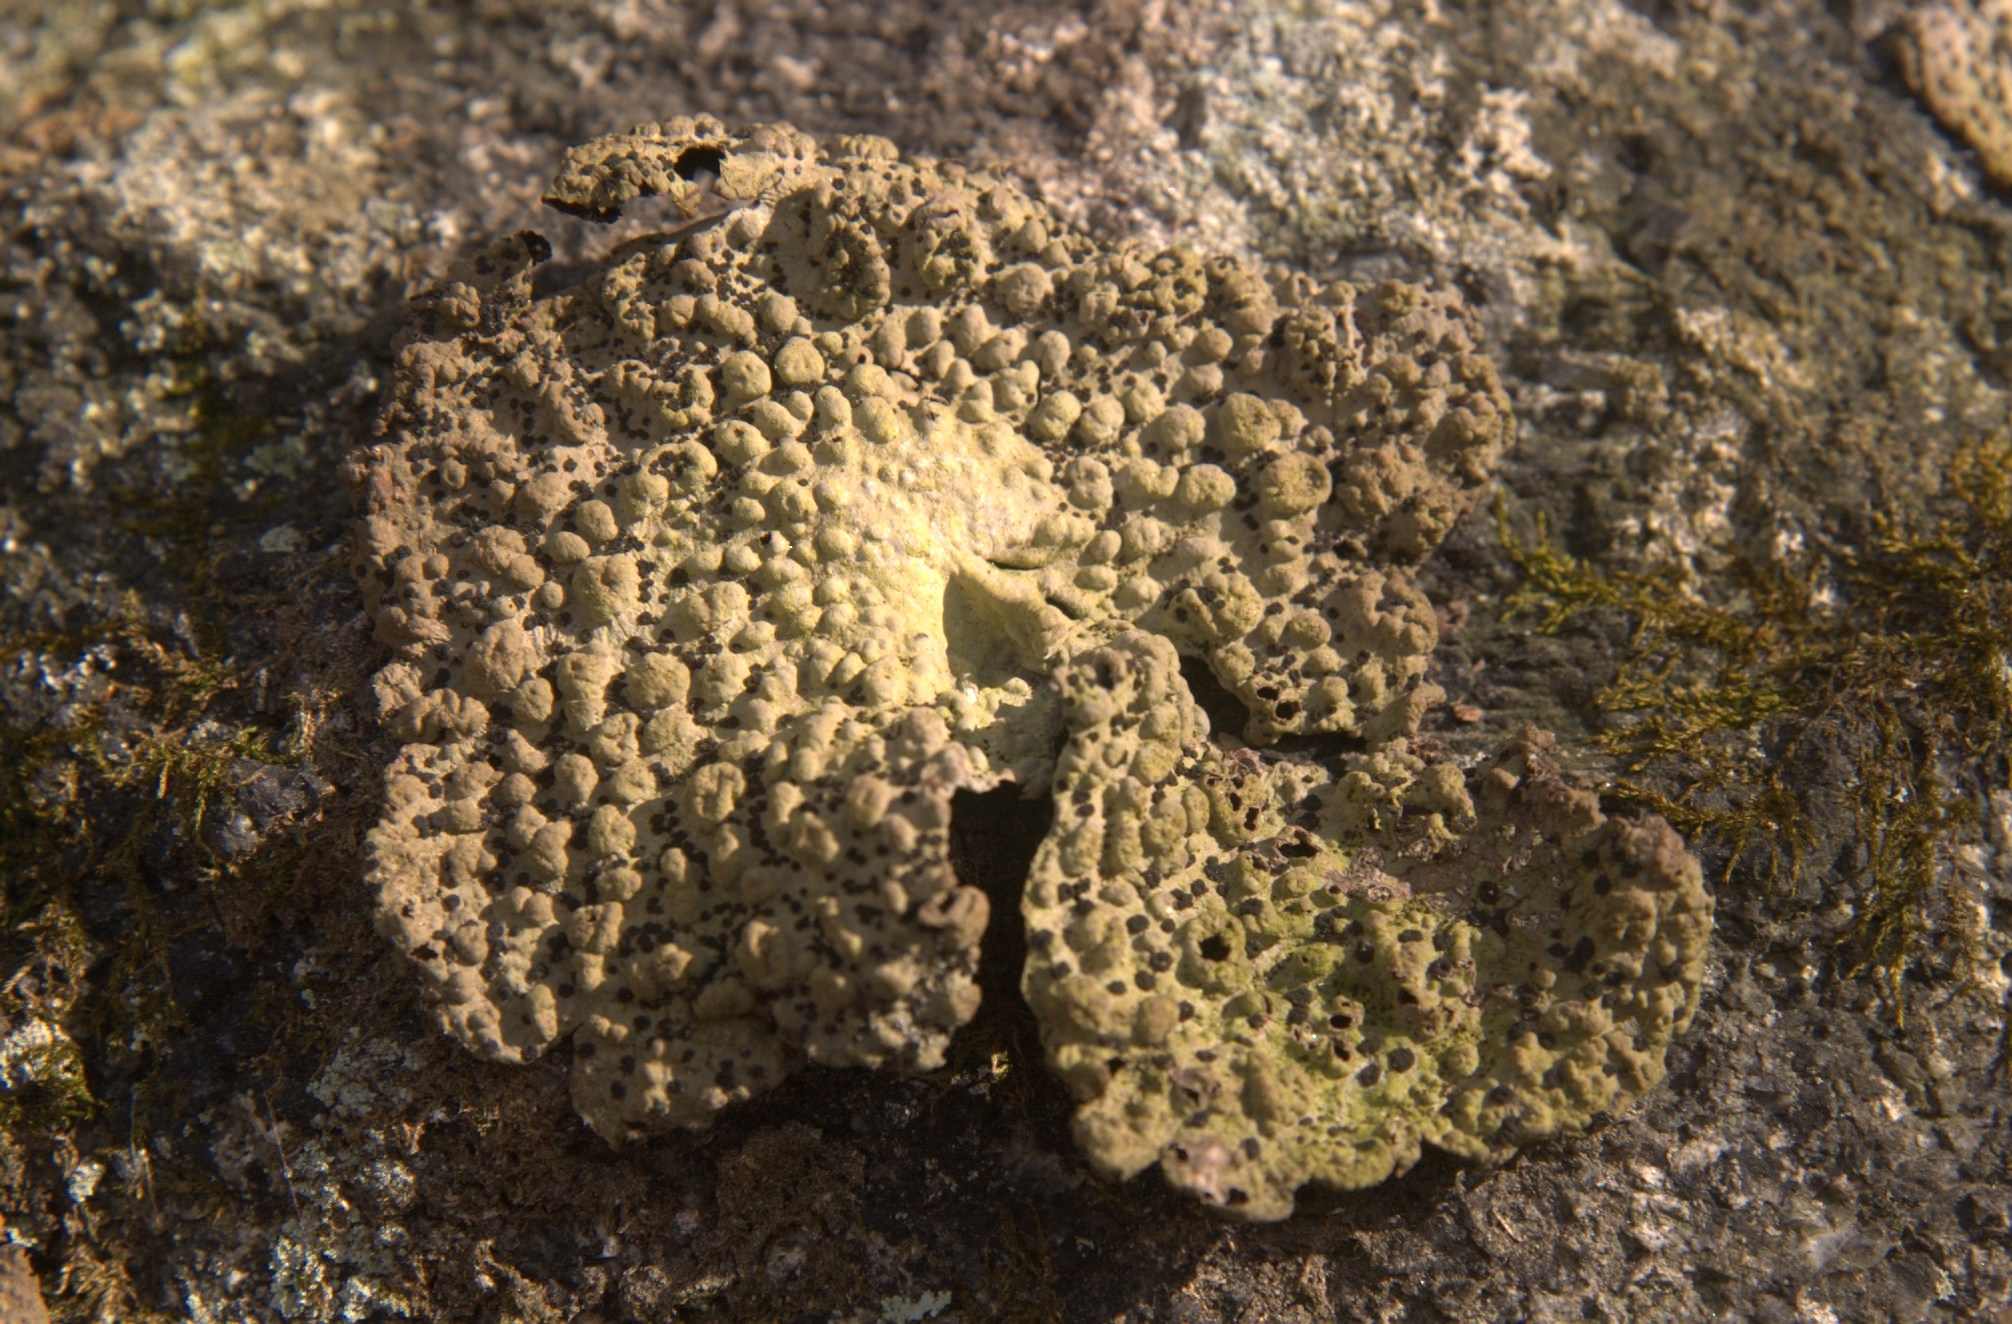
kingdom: Fungi
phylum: Ascomycota
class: Lecanoromycetes
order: Umbilicariales
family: Umbilicariaceae
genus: Lasallia
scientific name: Lasallia papulosa
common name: Common toadskin lichen
